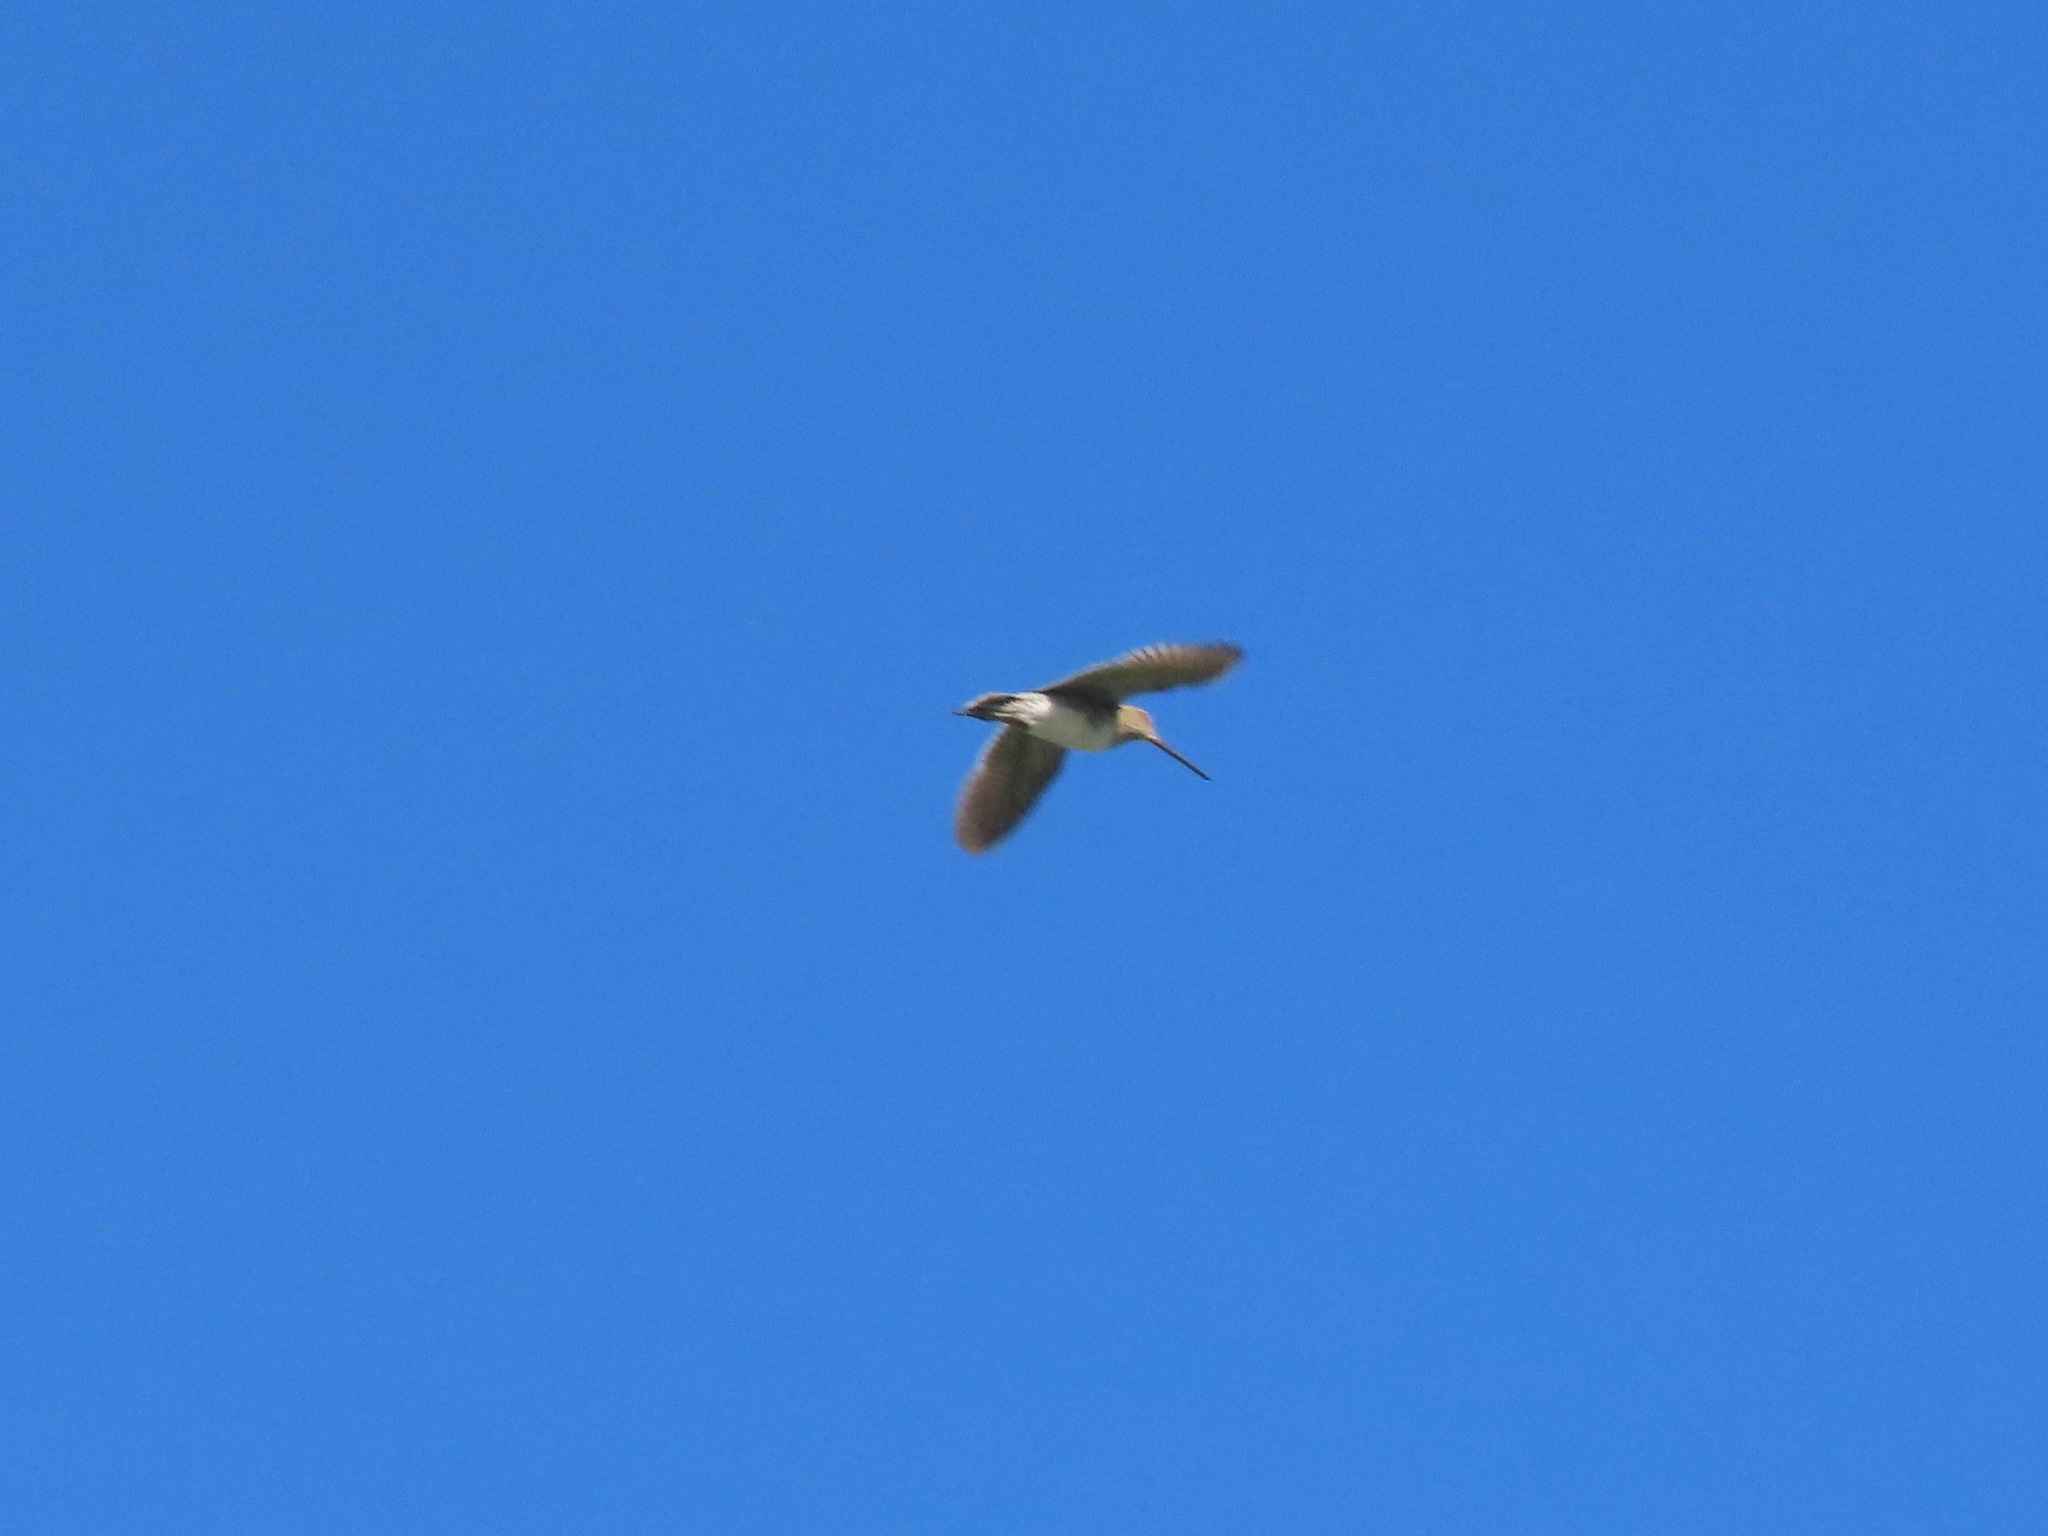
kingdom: Animalia
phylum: Chordata
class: Aves
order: Charadriiformes
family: Scolopacidae
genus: Gallinago
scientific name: Gallinago delicata
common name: Wilson's snipe
